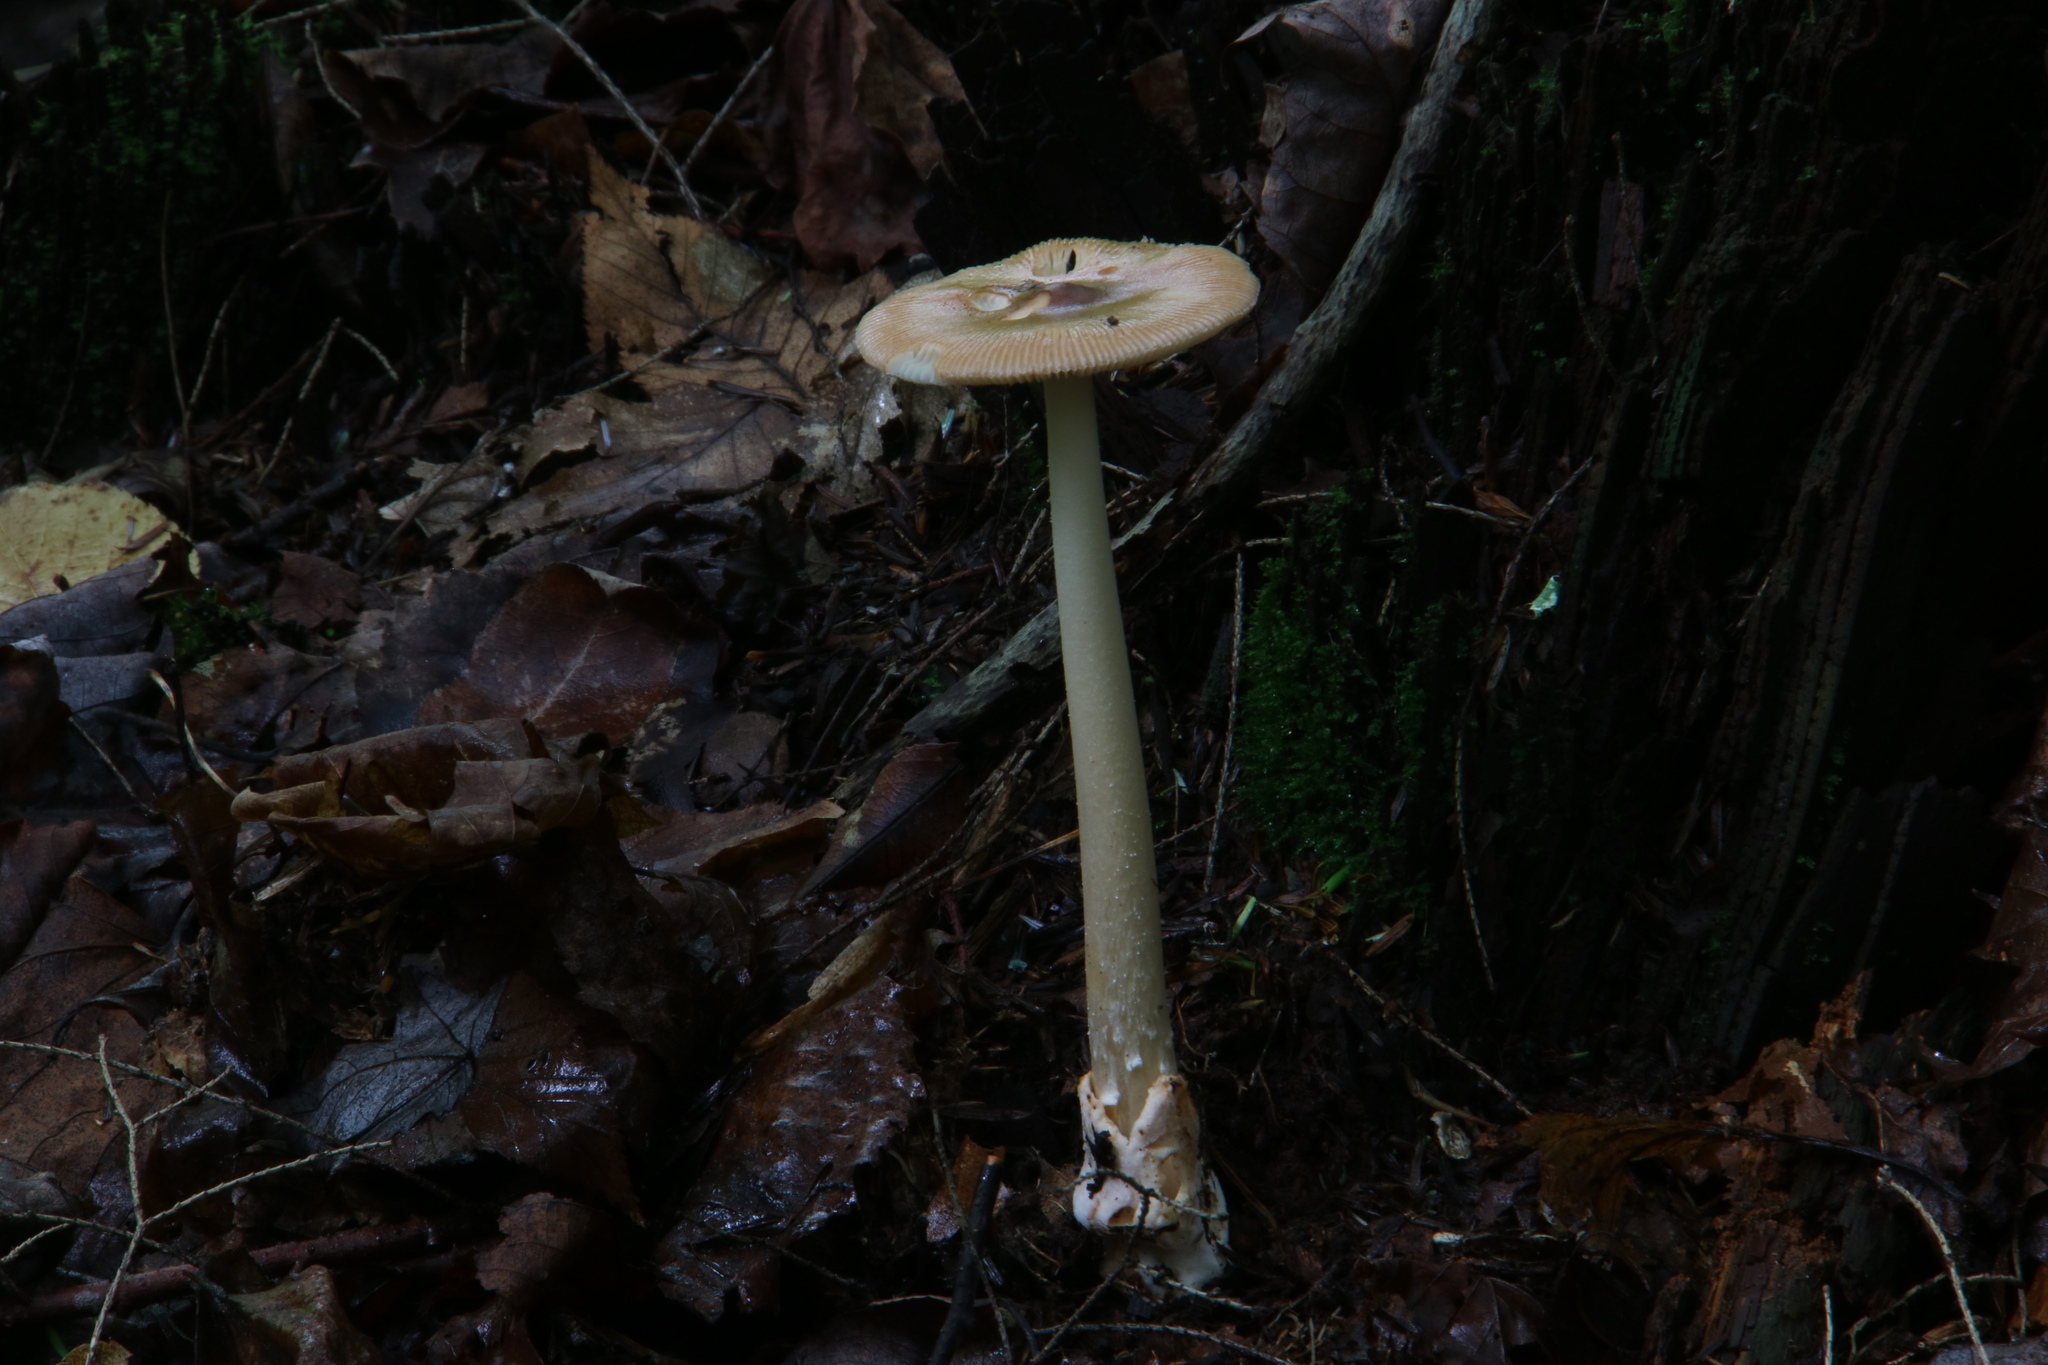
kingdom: Fungi
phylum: Basidiomycota
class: Agaricomycetes
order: Agaricales
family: Amanitaceae
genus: Amanita
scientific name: Amanita fulva
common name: Tawny grisette
